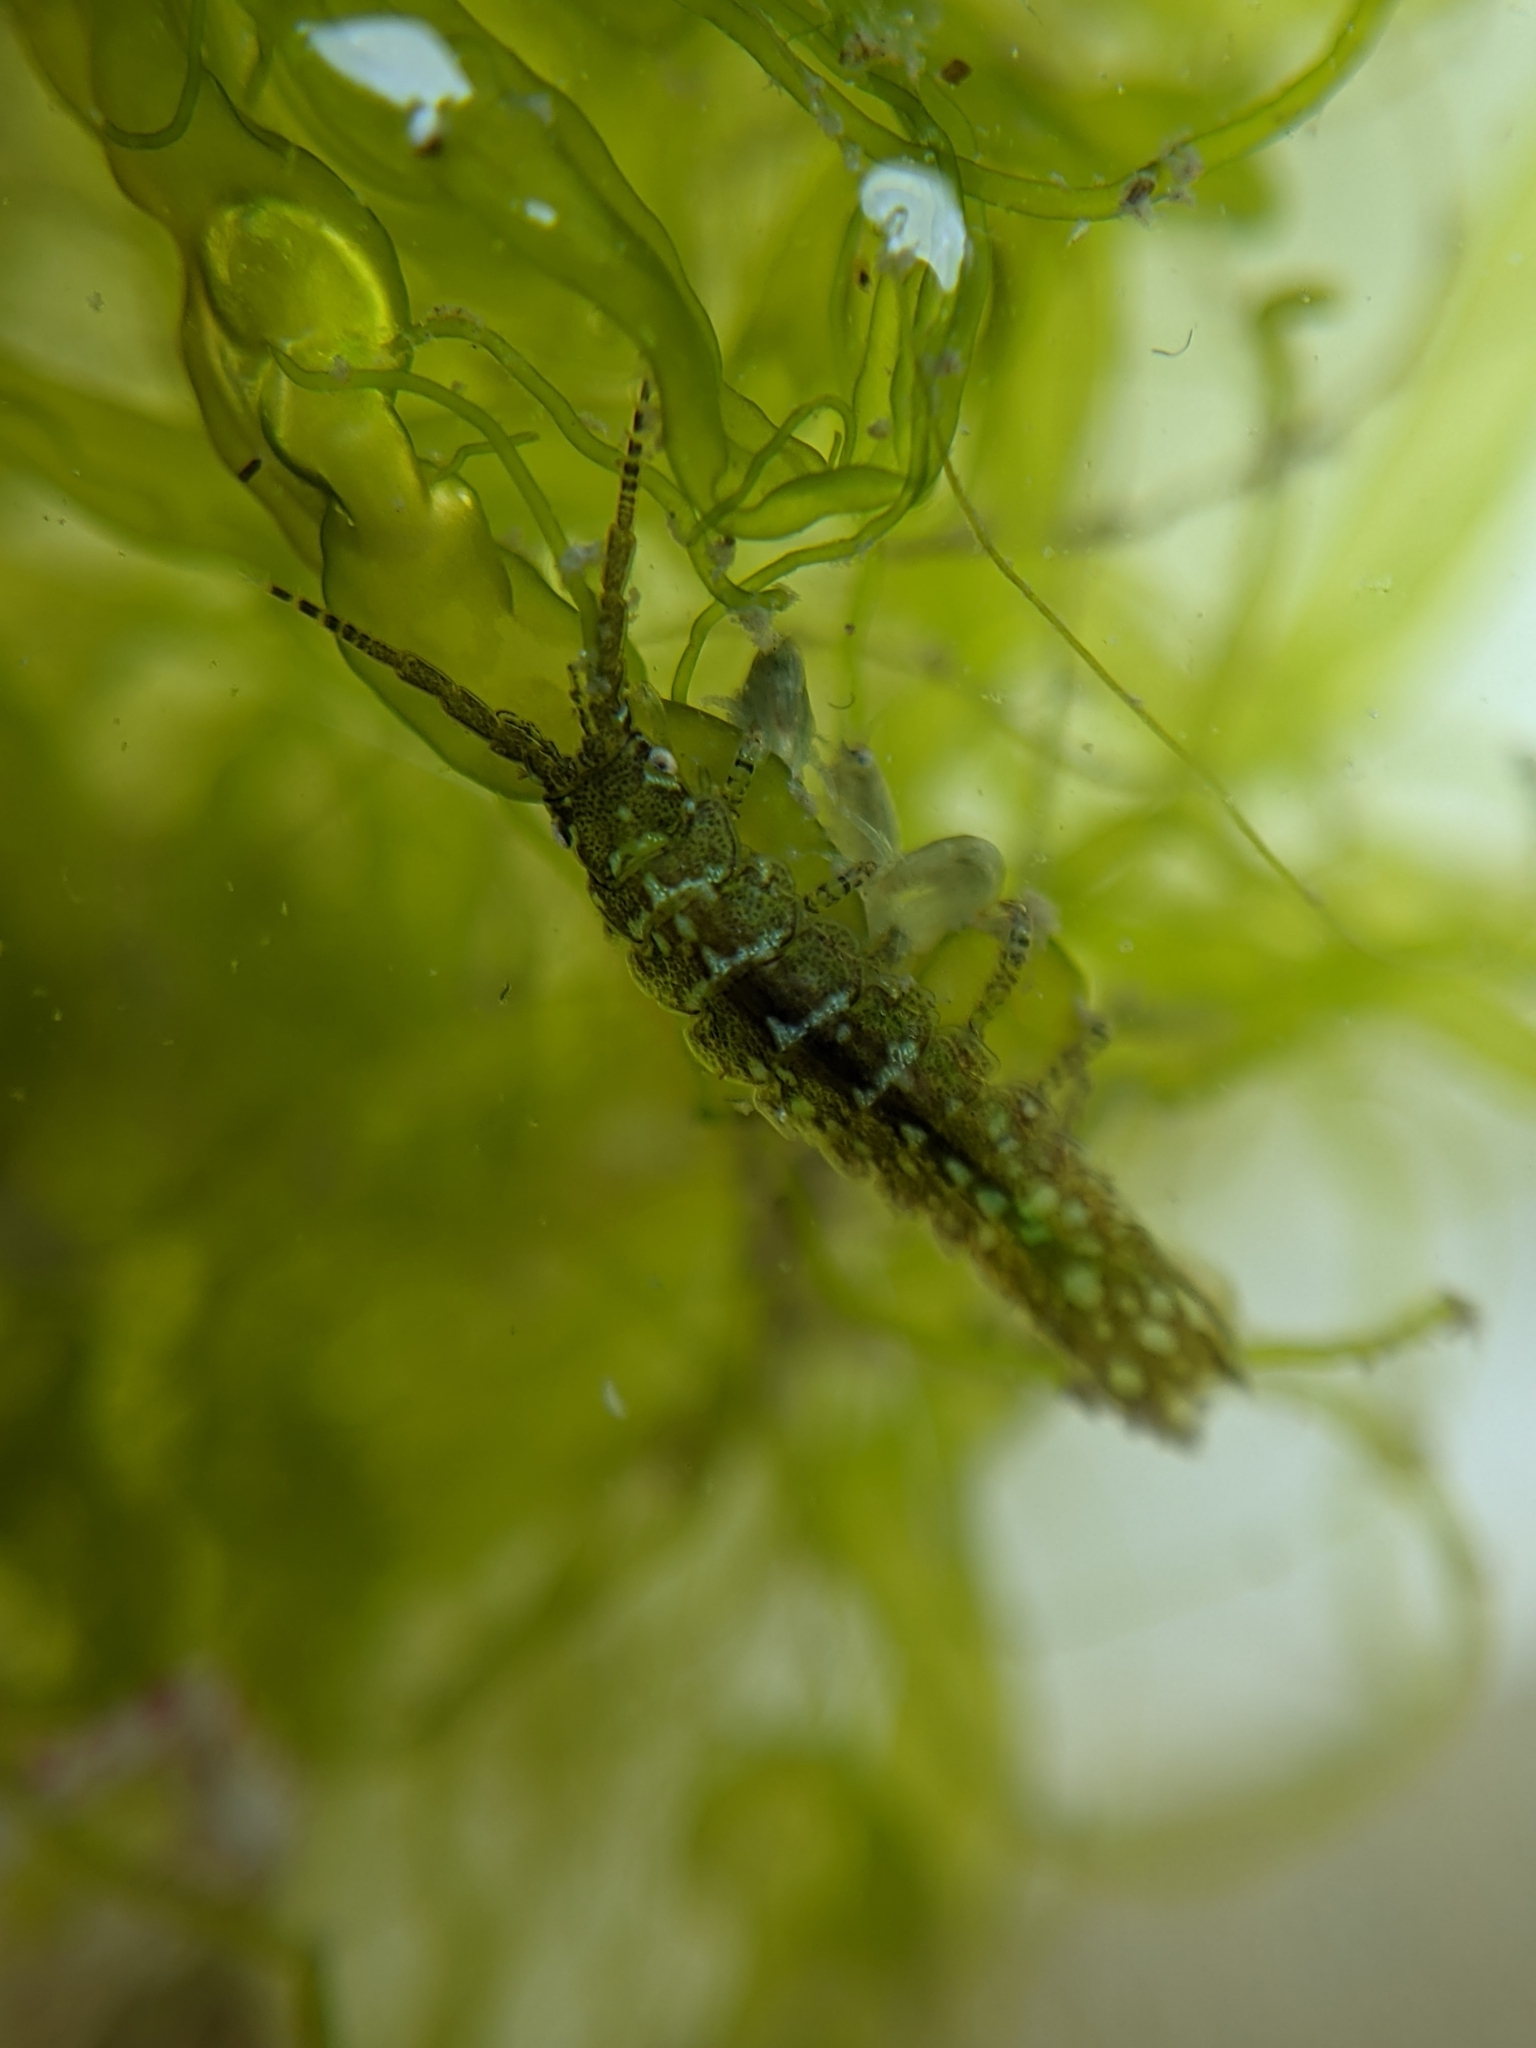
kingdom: Animalia
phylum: Arthropoda
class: Malacostraca
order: Isopoda
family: Idoteidae
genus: Pentidotea
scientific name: Pentidotea resecata
